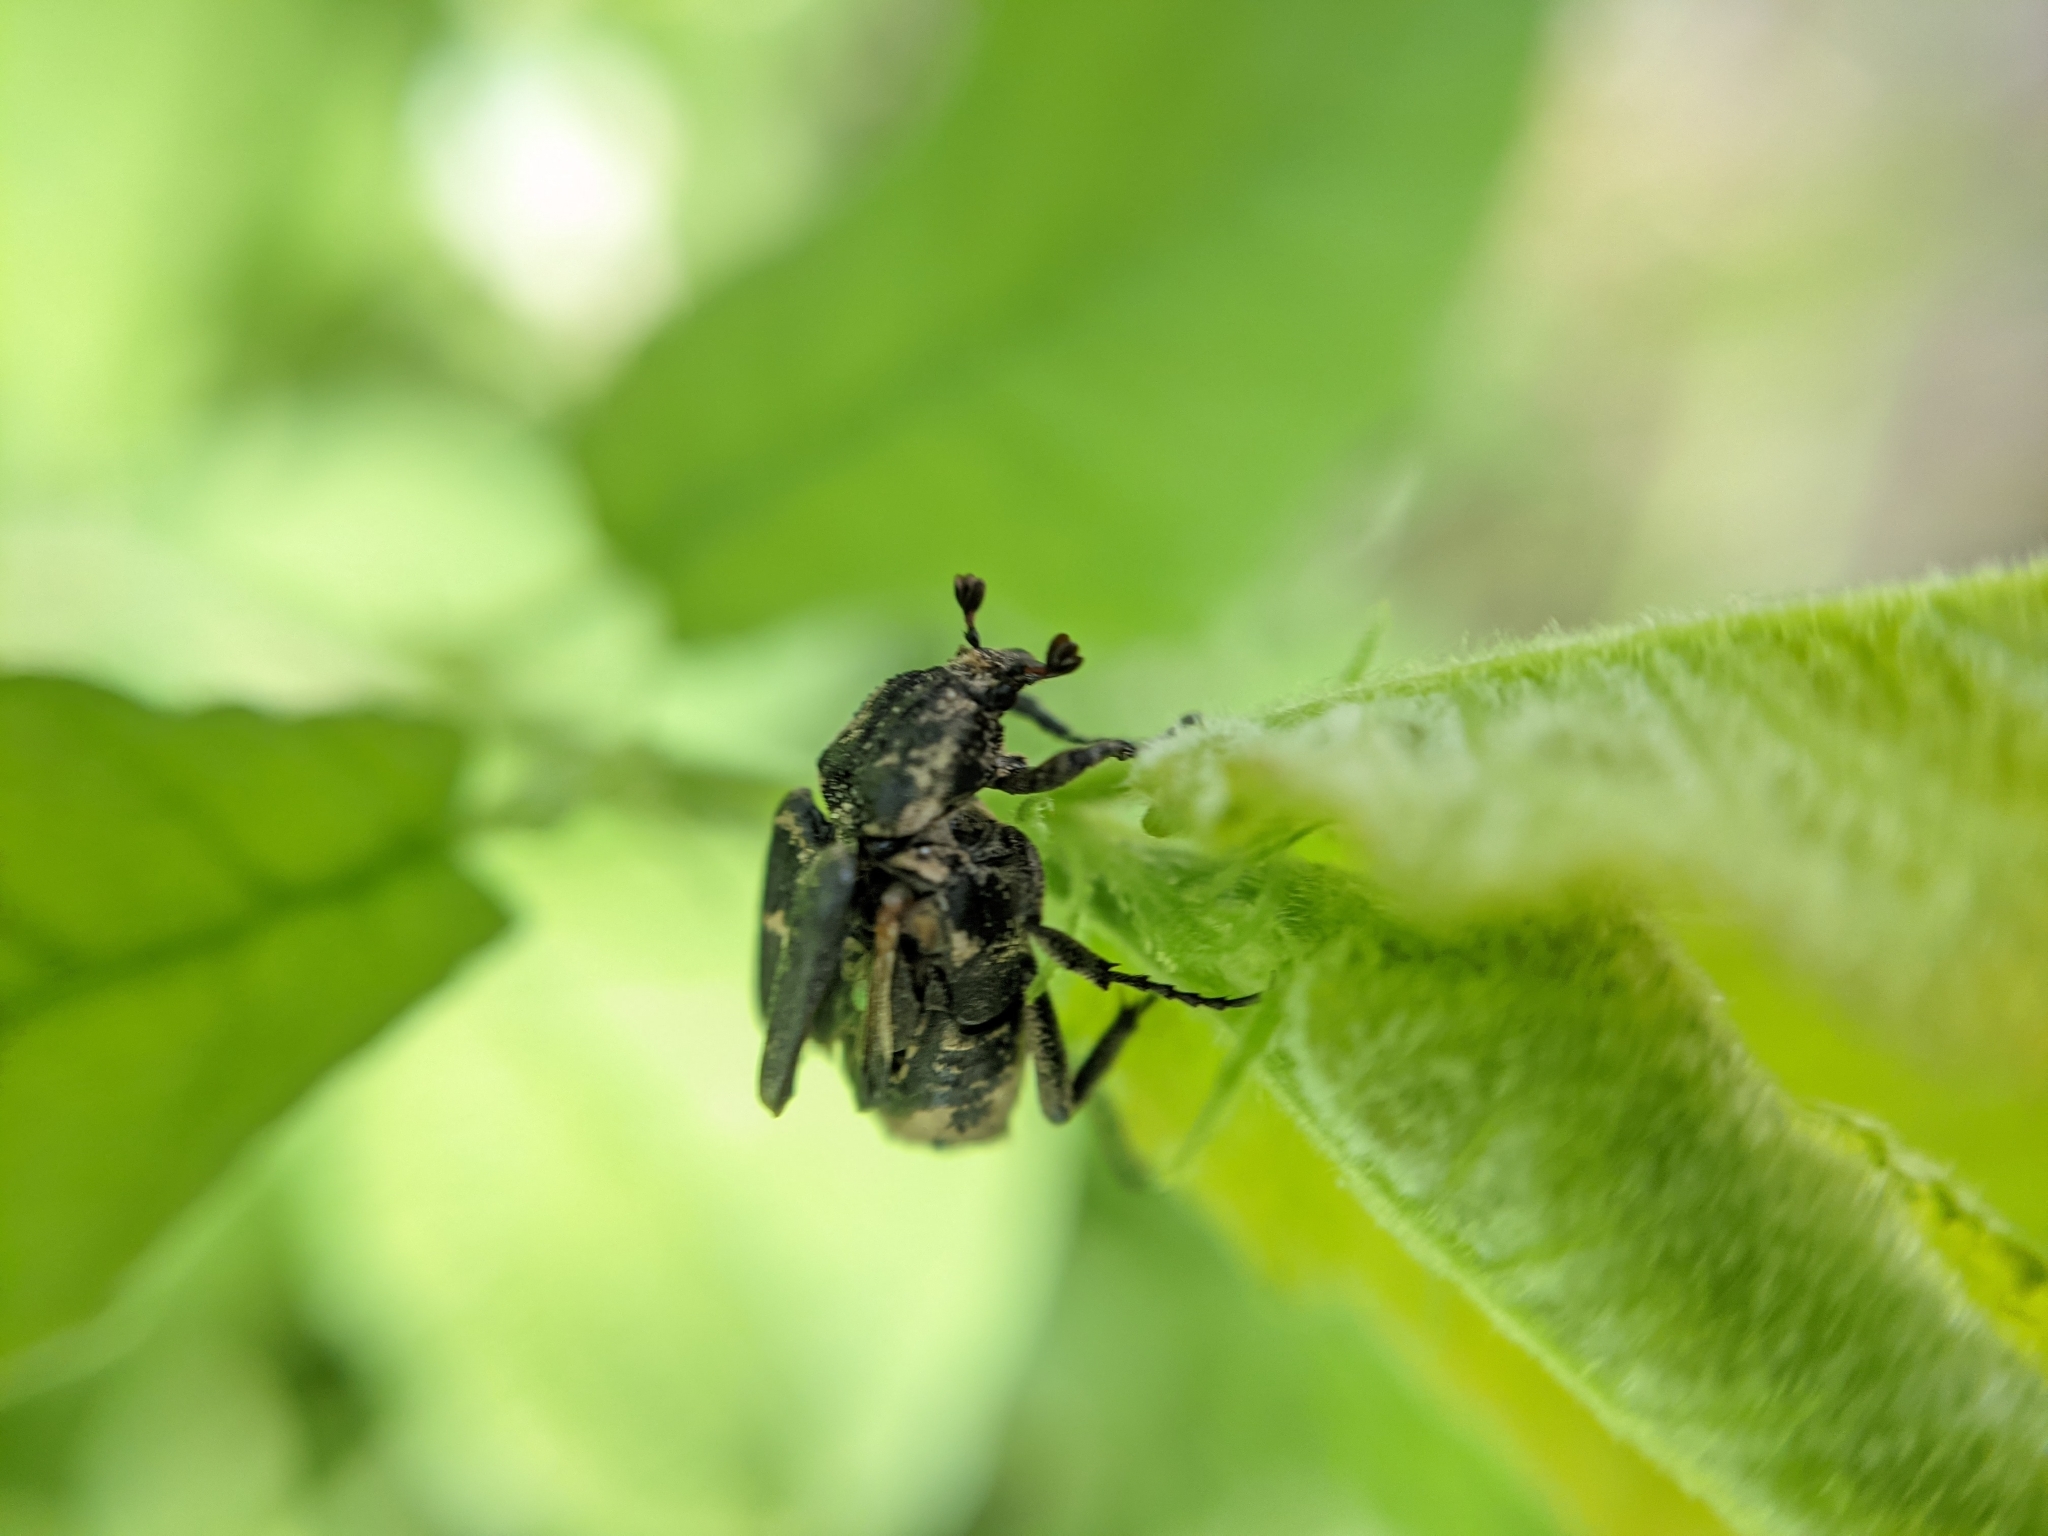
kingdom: Animalia
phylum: Arthropoda
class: Insecta
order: Coleoptera
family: Scarabaeidae
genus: Valgus
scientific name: Valgus hemipterus
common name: Bug flower chafer
